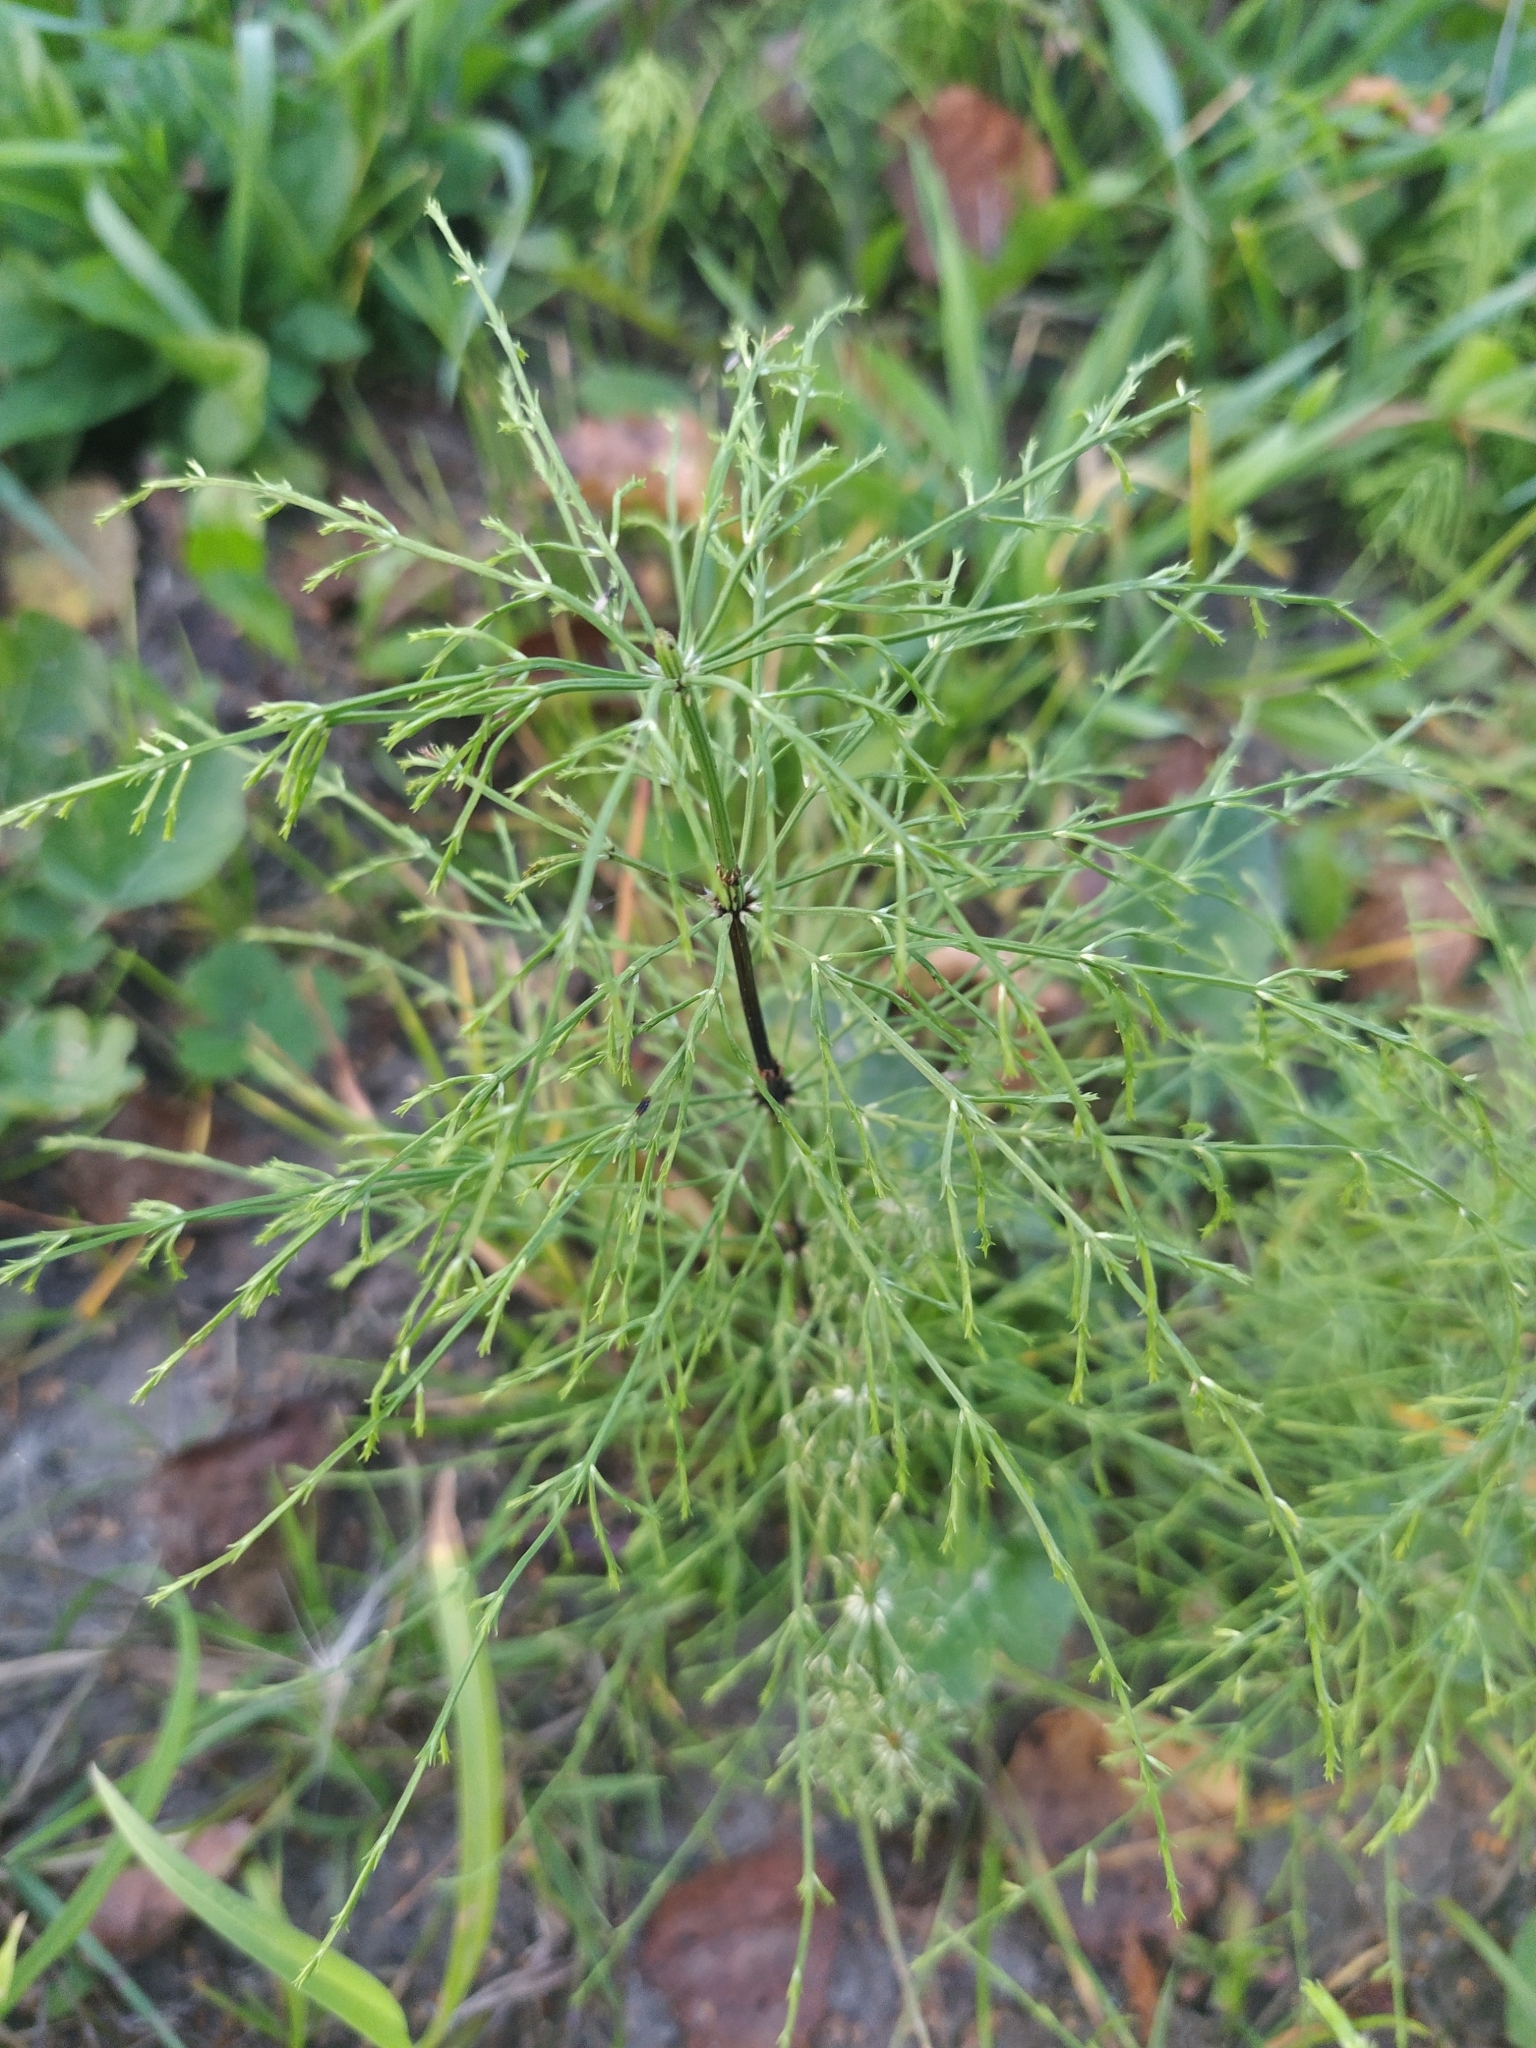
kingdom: Plantae
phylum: Tracheophyta
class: Polypodiopsida
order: Equisetales
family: Equisetaceae
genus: Equisetum
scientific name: Equisetum sylvaticum
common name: Wood horsetail
